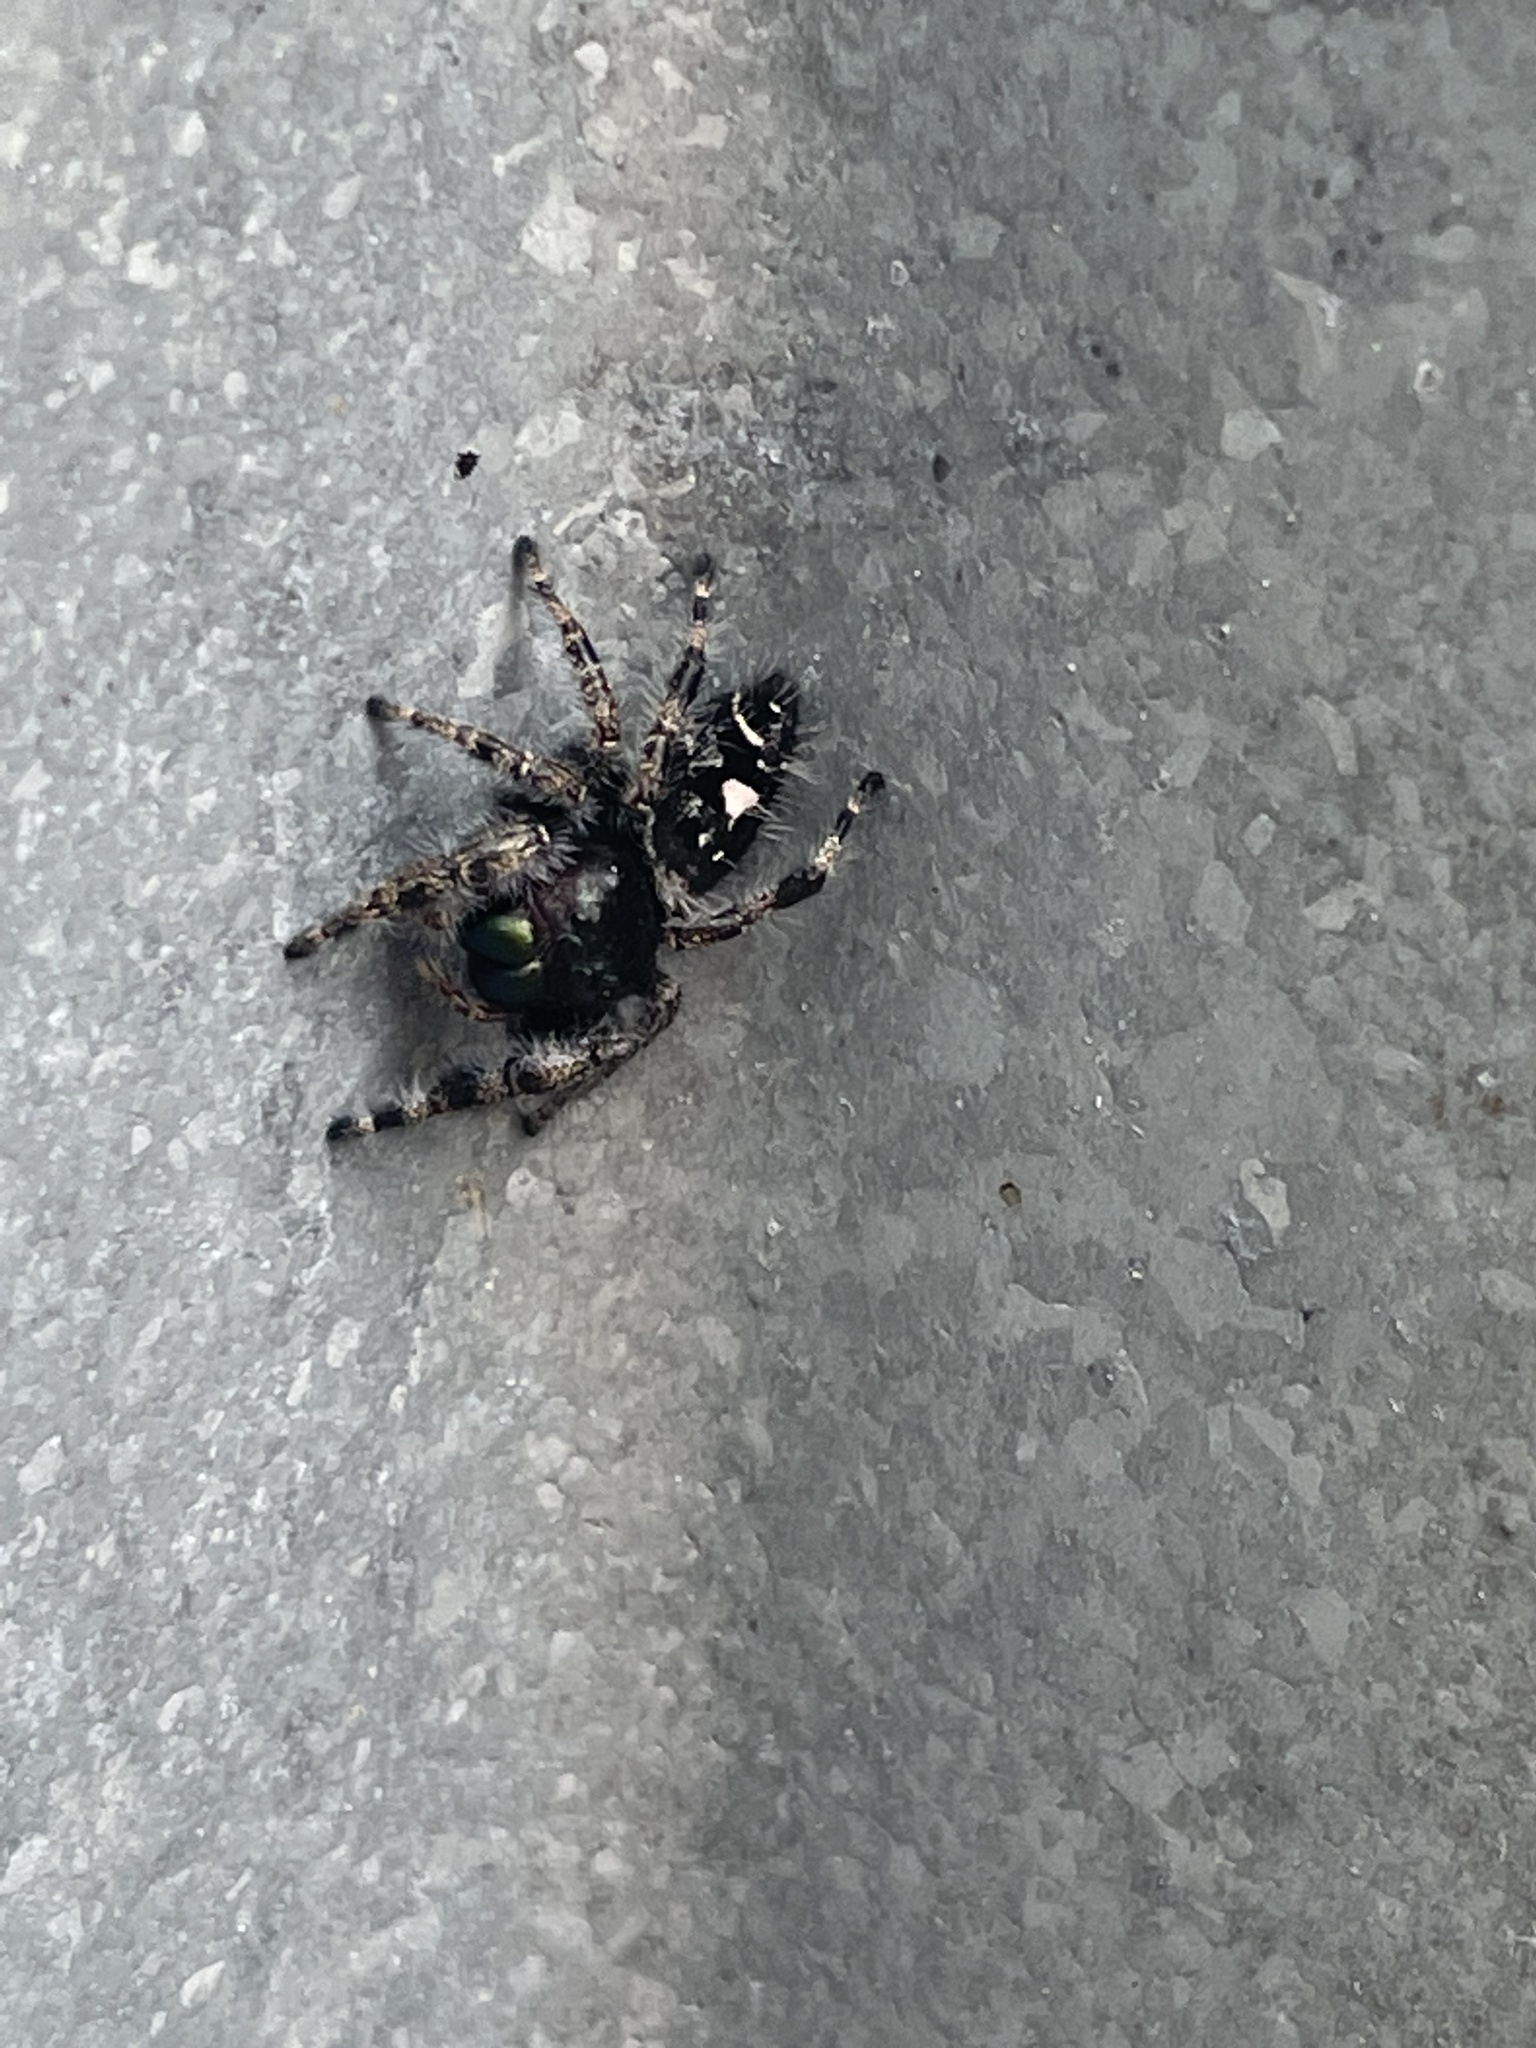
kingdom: Animalia
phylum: Arthropoda
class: Arachnida
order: Araneae
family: Salticidae
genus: Phidippus
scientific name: Phidippus audax
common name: Bold jumper
